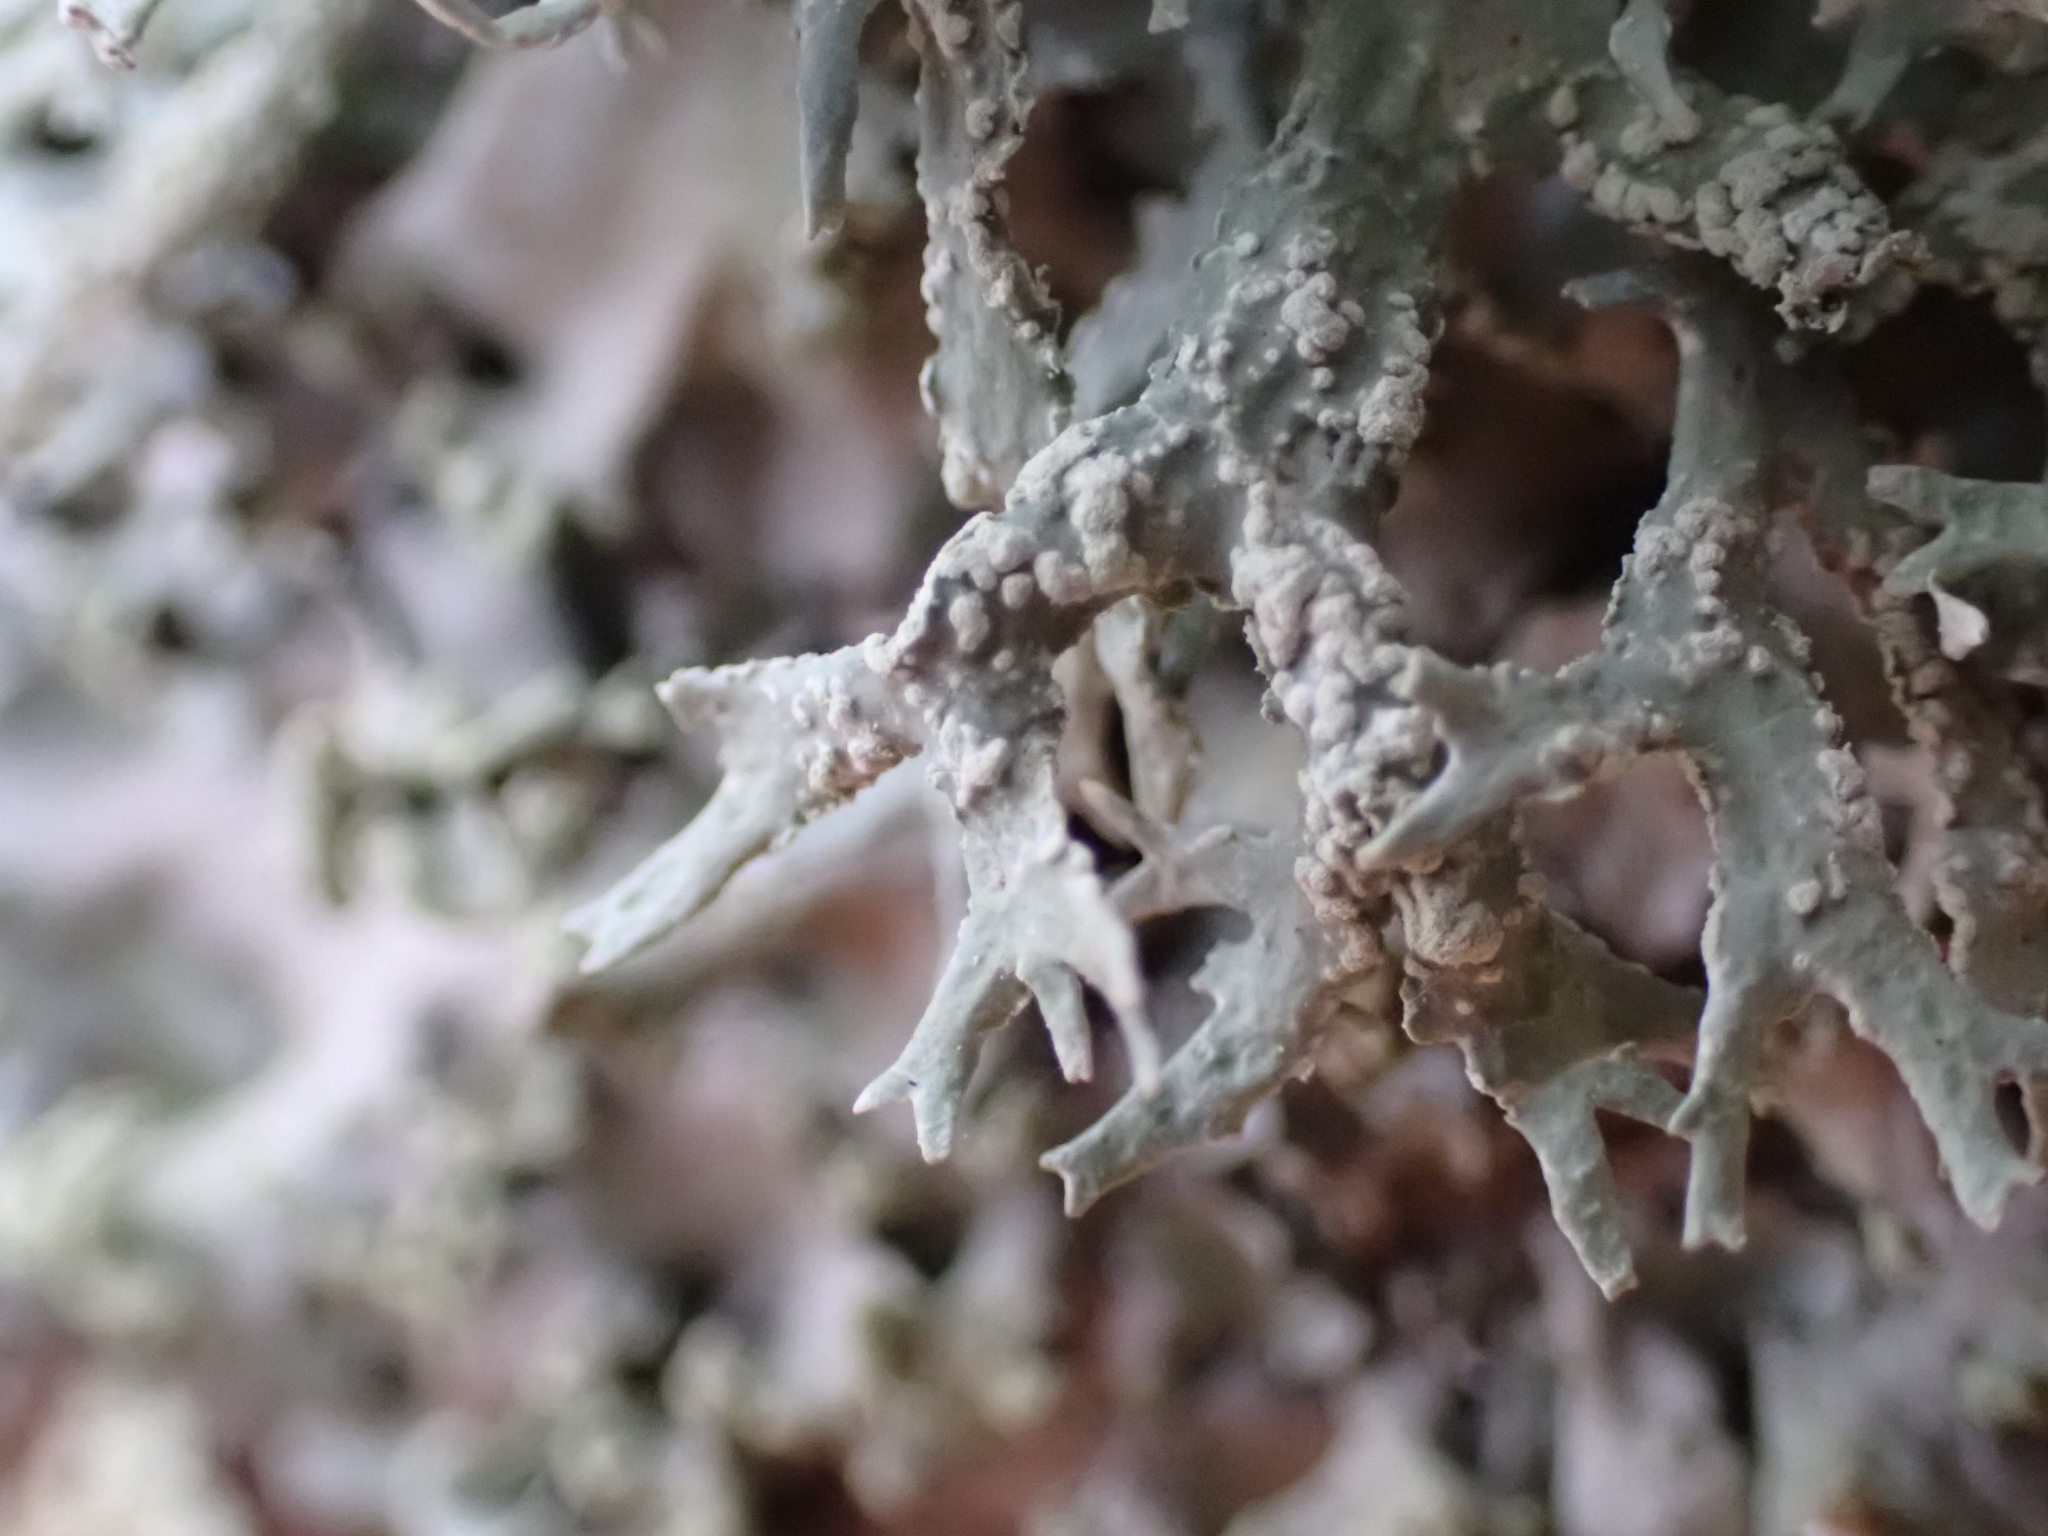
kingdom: Fungi
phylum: Ascomycota
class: Lecanoromycetes
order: Lecanorales
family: Parmeliaceae
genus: Evernia
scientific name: Evernia prunastri
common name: Oak moss
